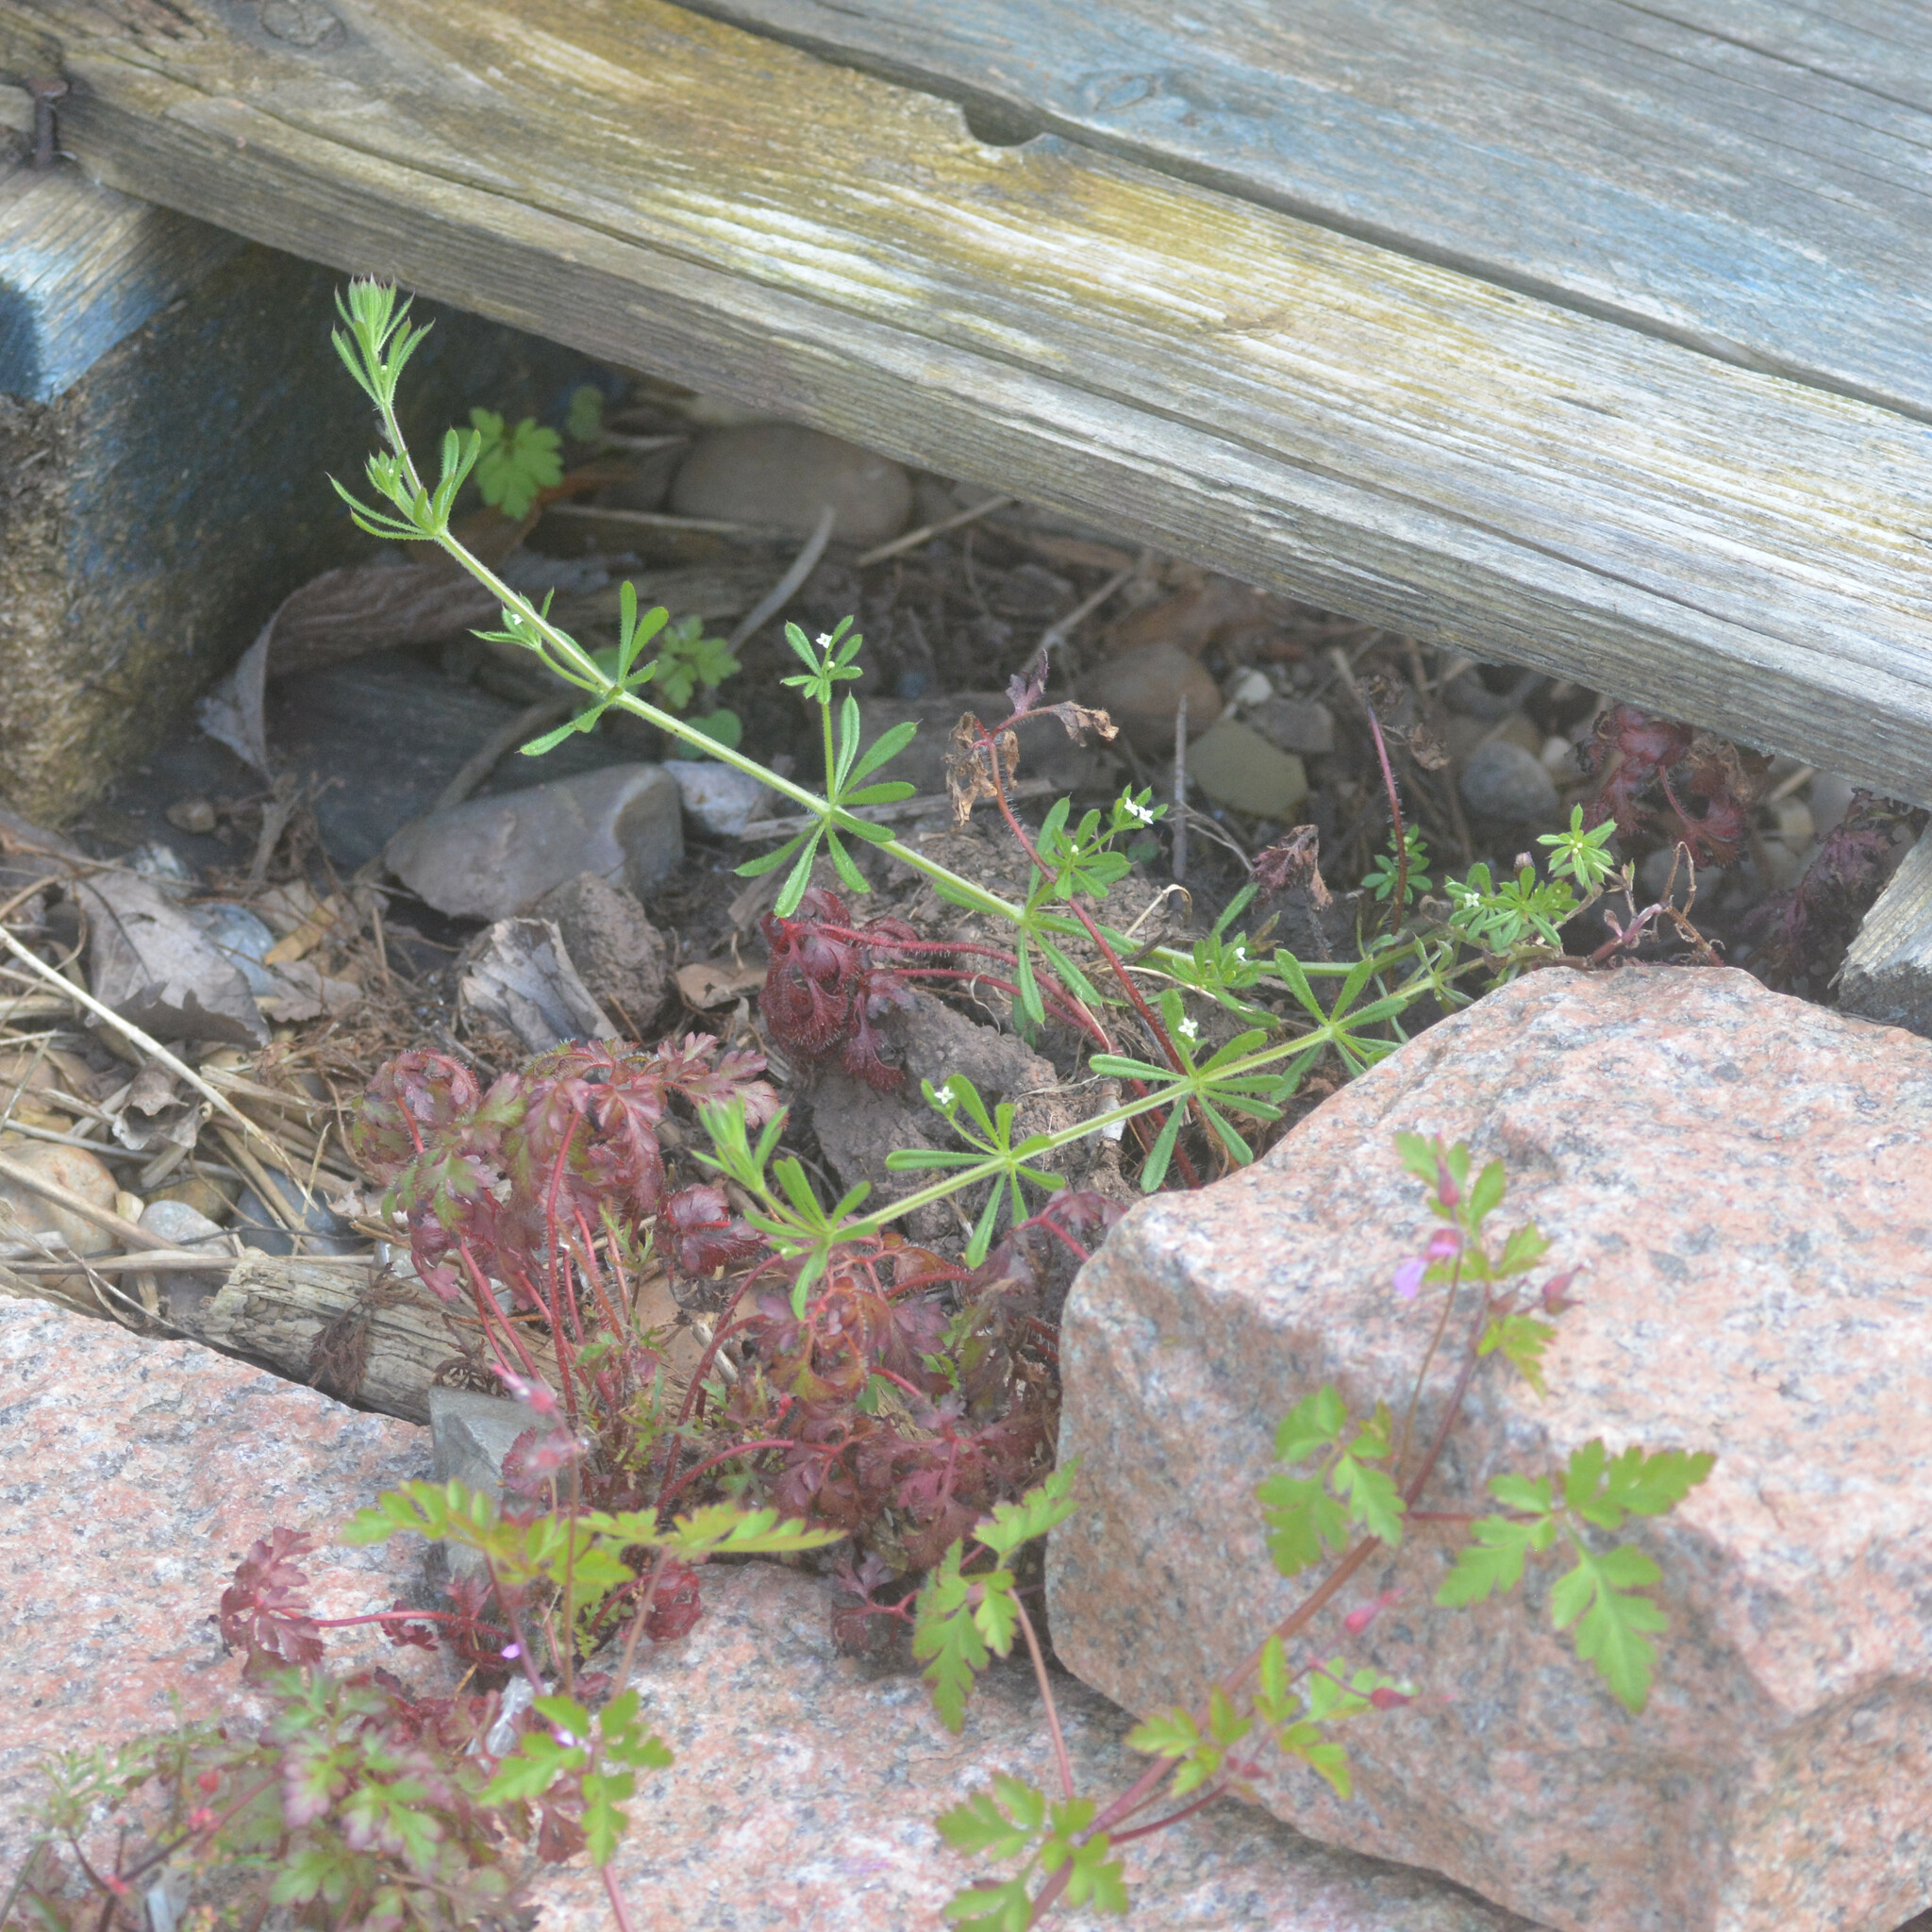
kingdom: Plantae
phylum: Tracheophyta
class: Magnoliopsida
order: Gentianales
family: Rubiaceae
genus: Galium
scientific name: Galium aparine
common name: Cleavers
